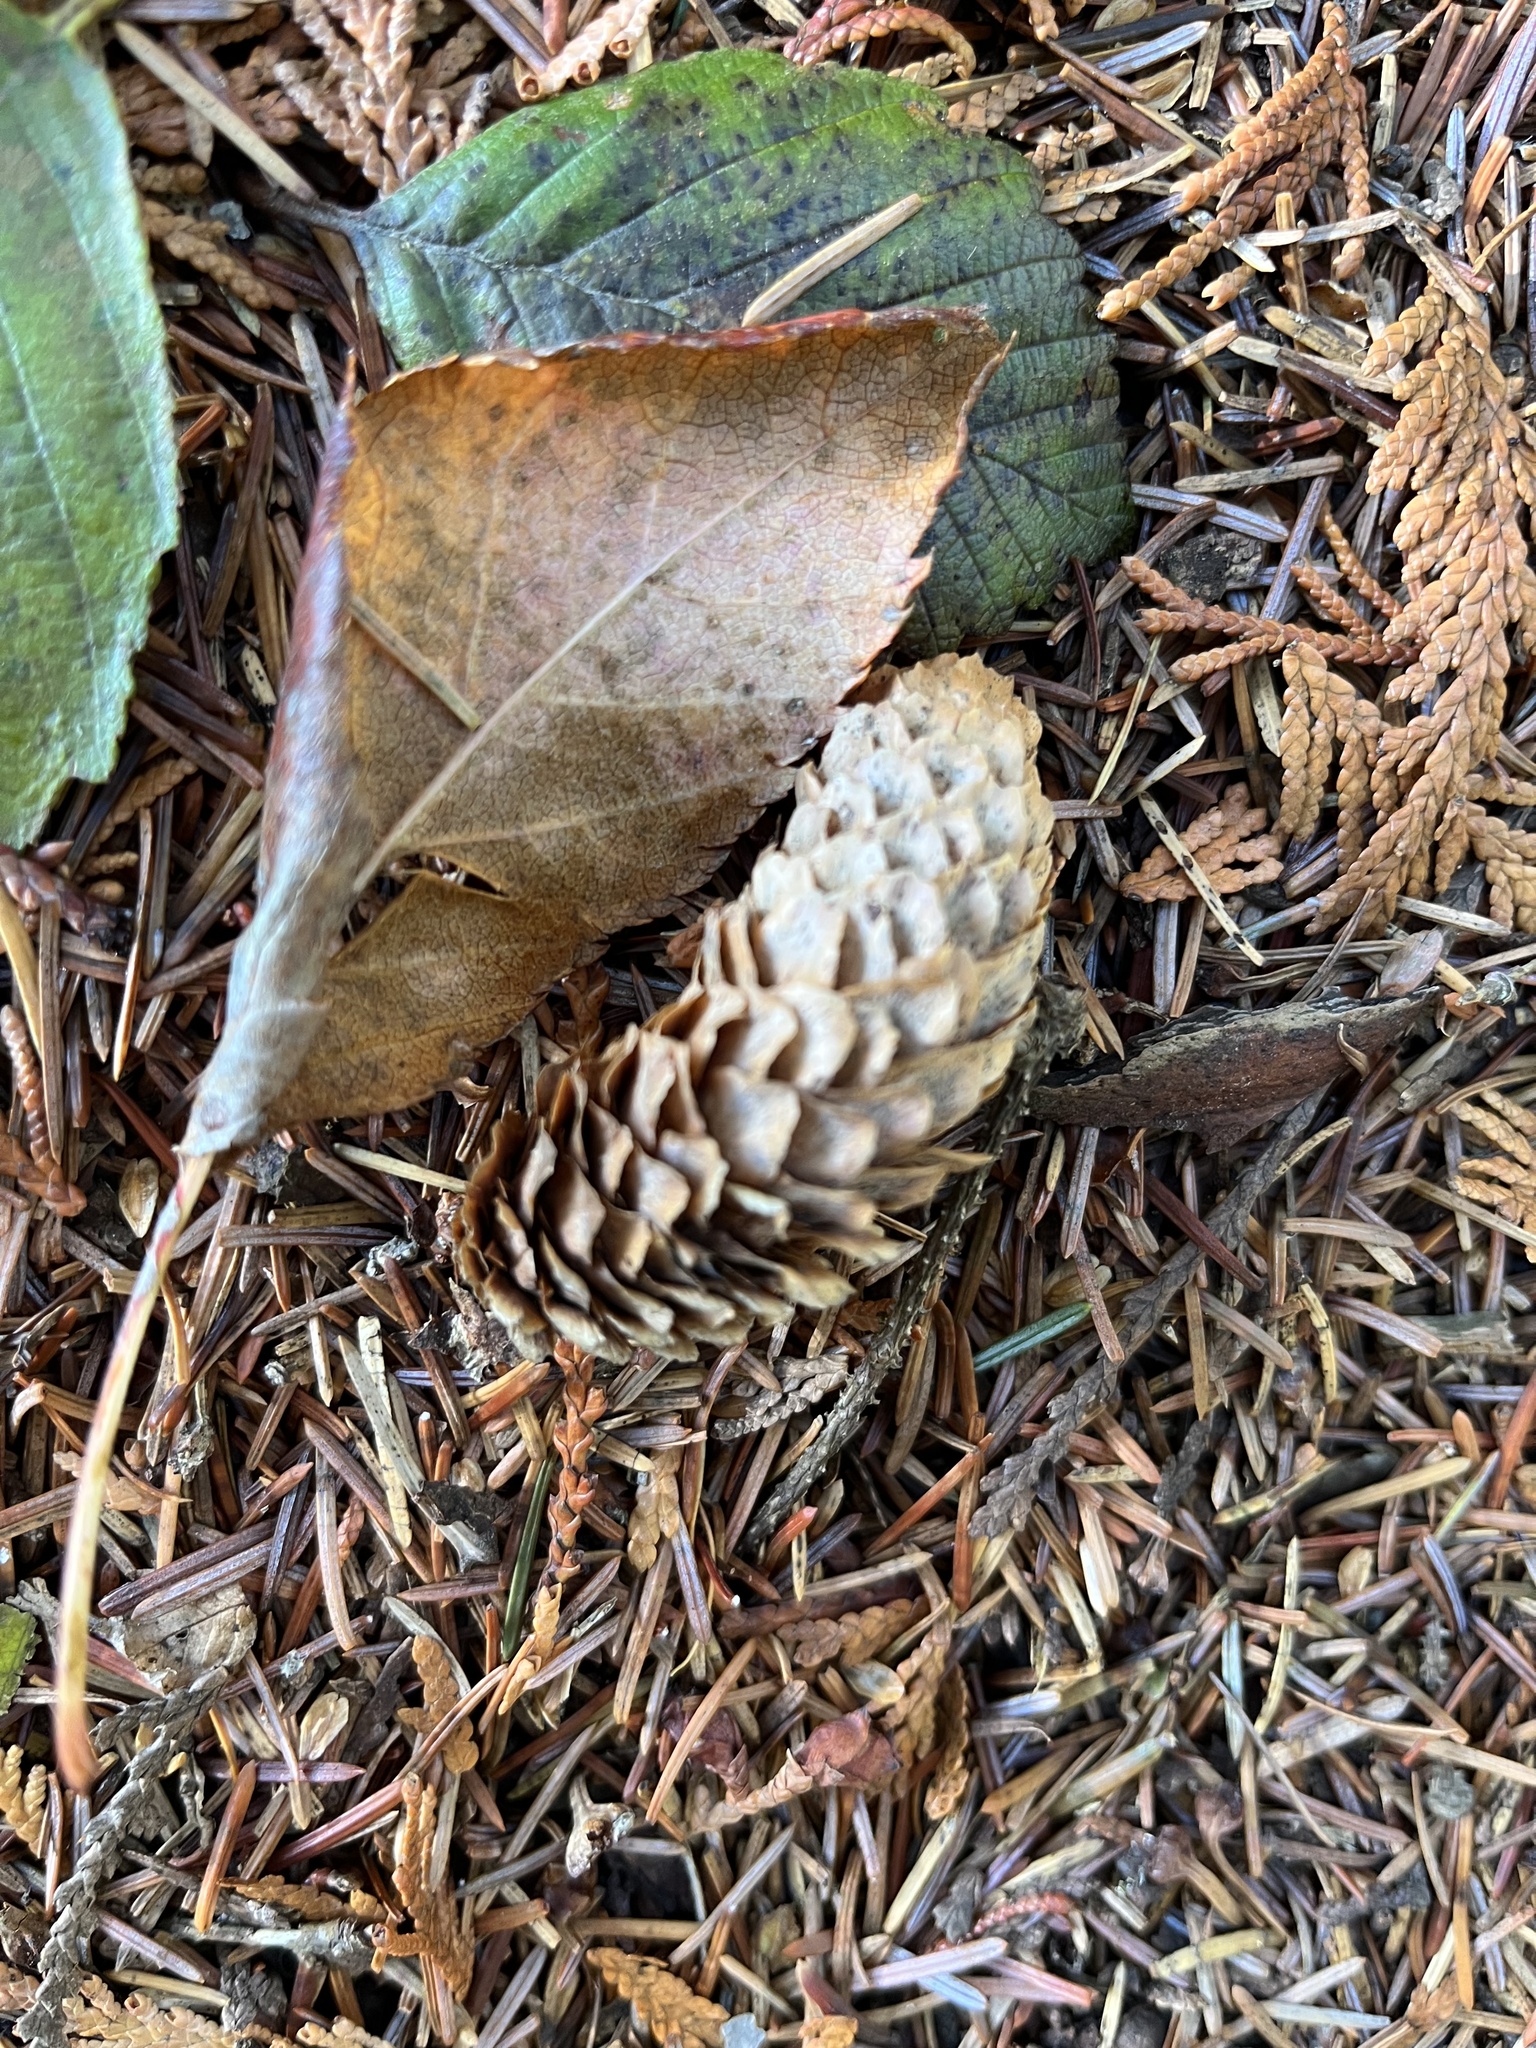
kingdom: Plantae
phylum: Tracheophyta
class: Pinopsida
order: Pinales
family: Pinaceae
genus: Picea
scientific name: Picea sitchensis
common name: Sitka spruce
